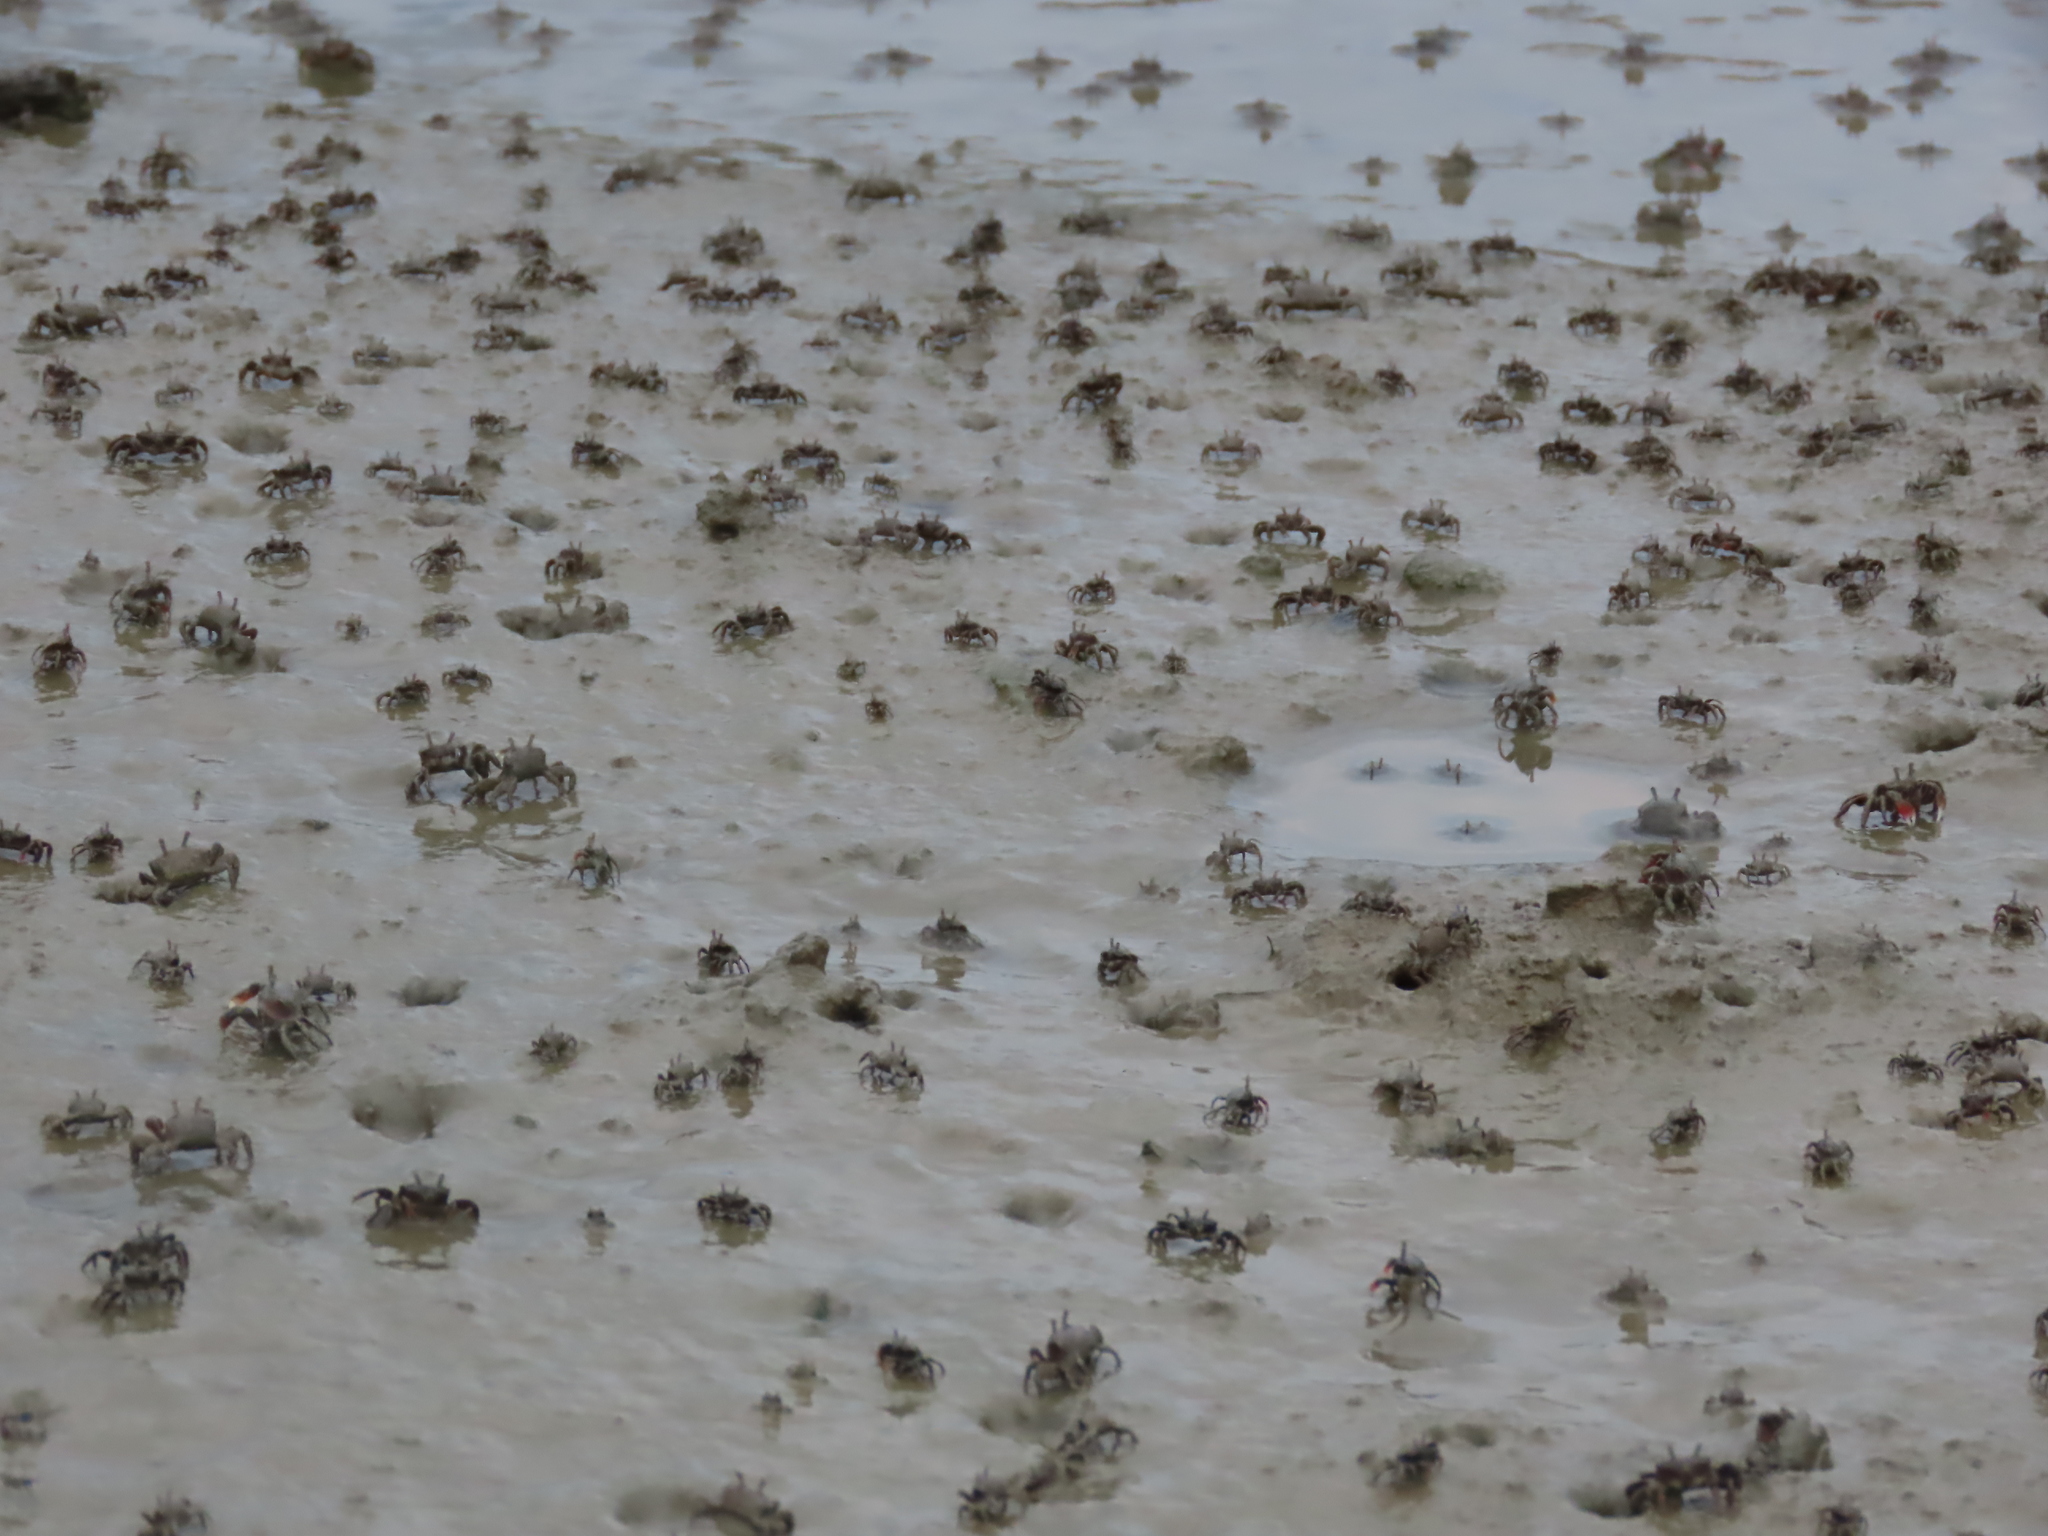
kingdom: Animalia
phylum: Arthropoda
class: Malacostraca
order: Decapoda
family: Dotillidae
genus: Ilyoplax
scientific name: Ilyoplax formosensis
